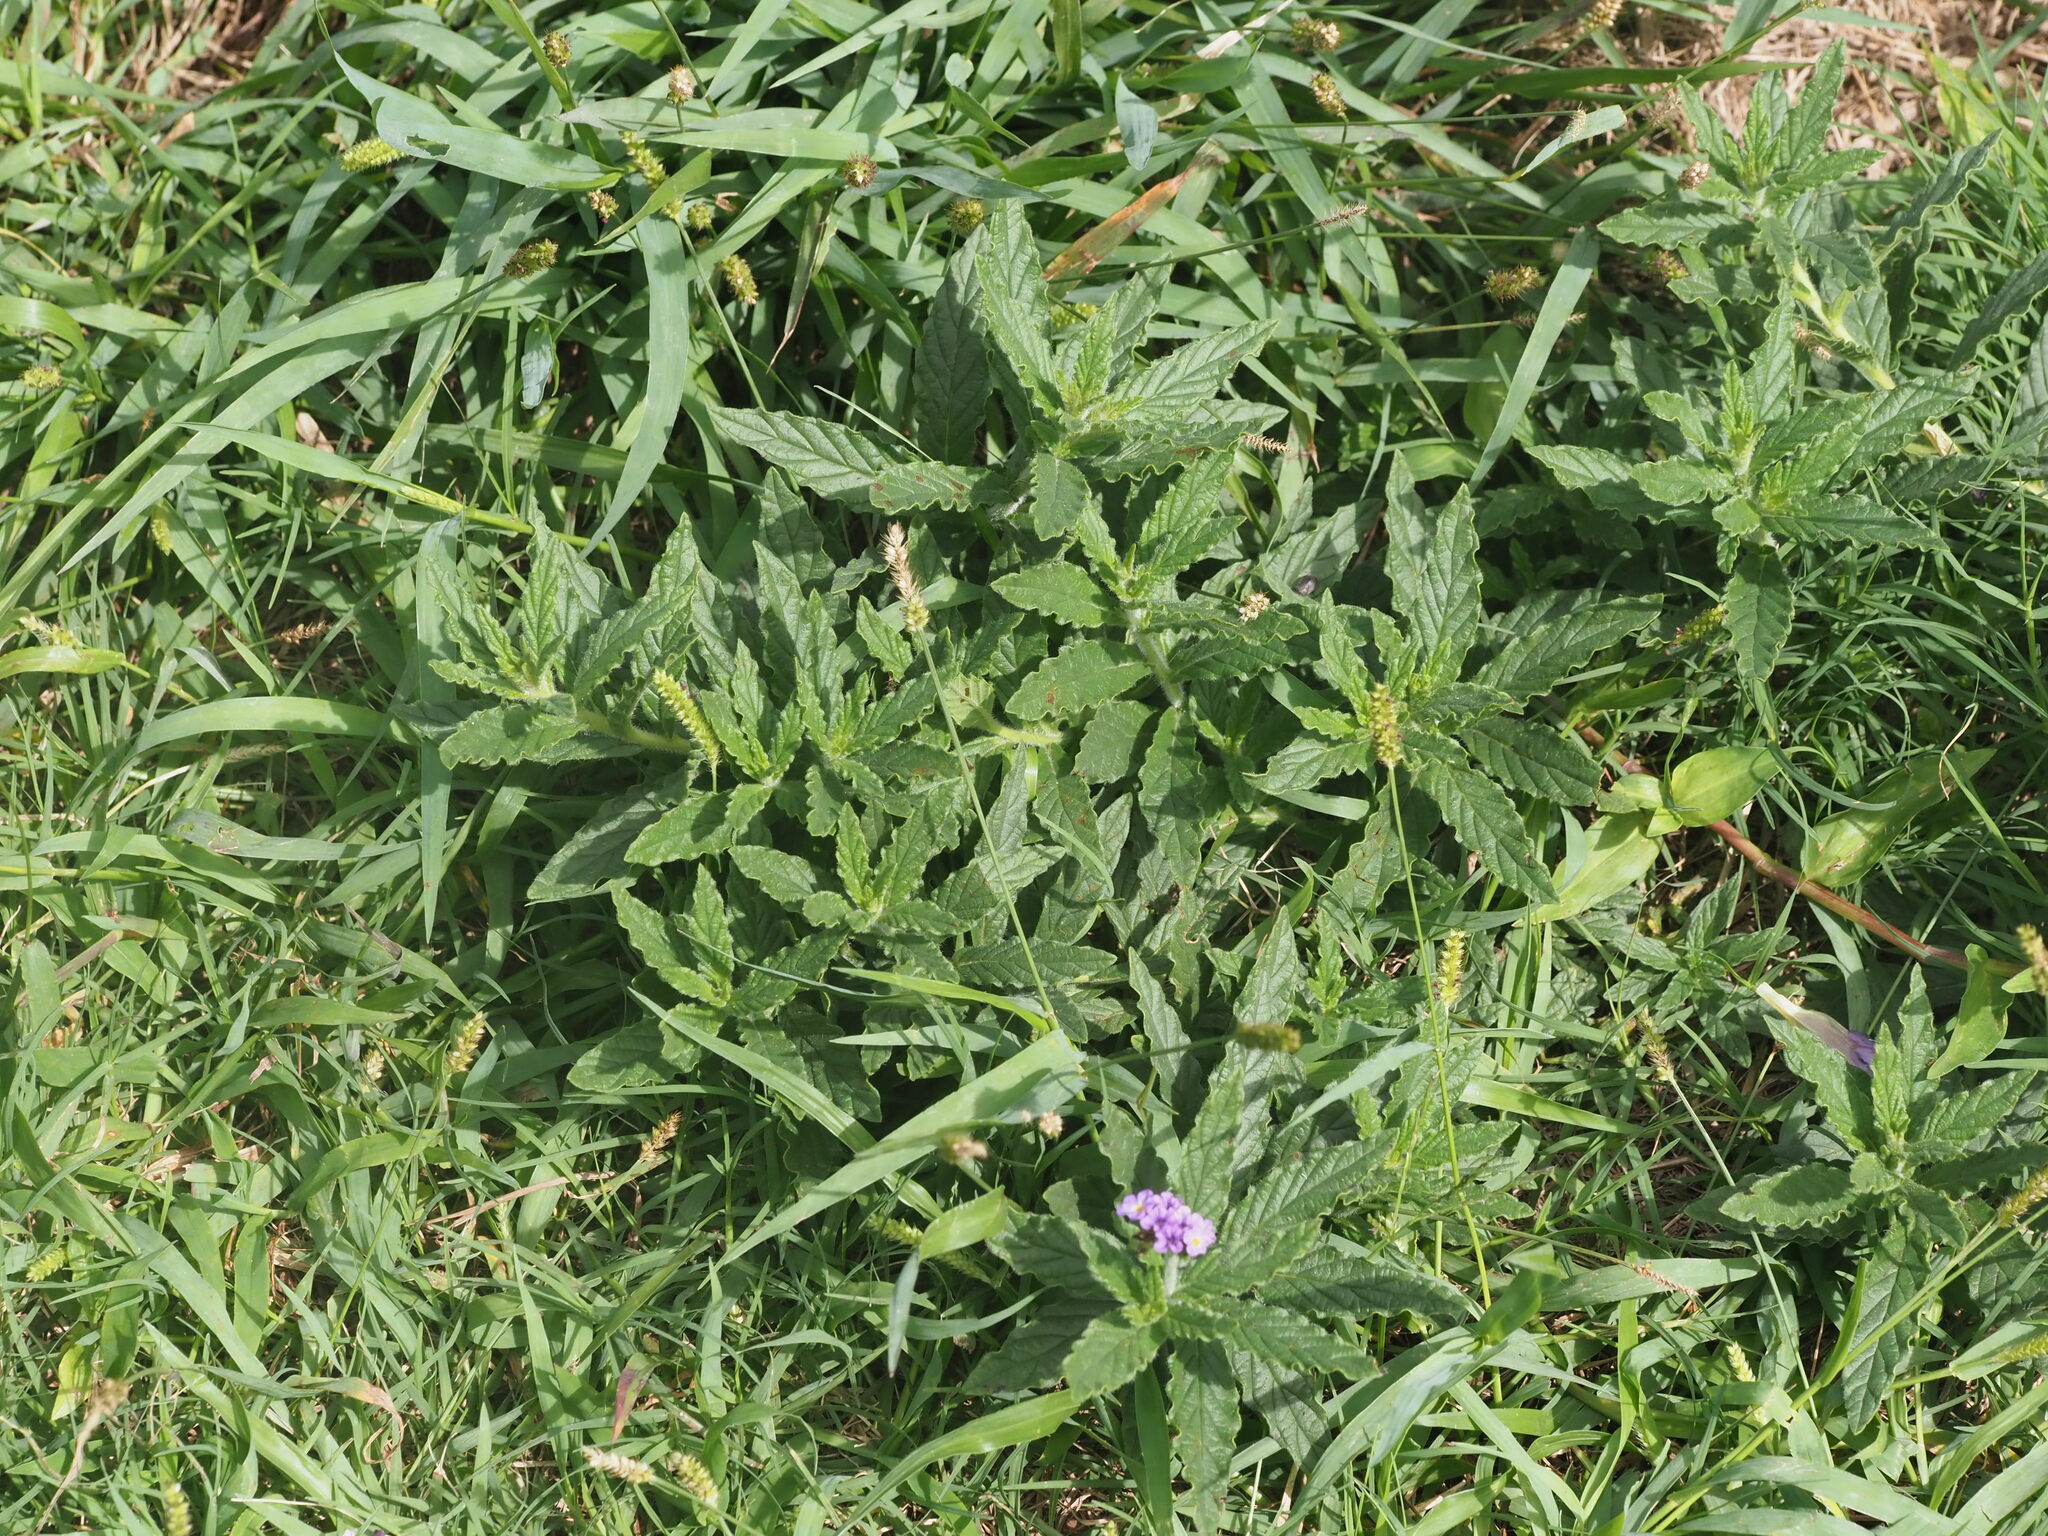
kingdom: Plantae
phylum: Tracheophyta
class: Magnoliopsida
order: Boraginales
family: Heliotropiaceae
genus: Heliotropium
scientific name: Heliotropium amplexicaule
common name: Clasping heliotrope
